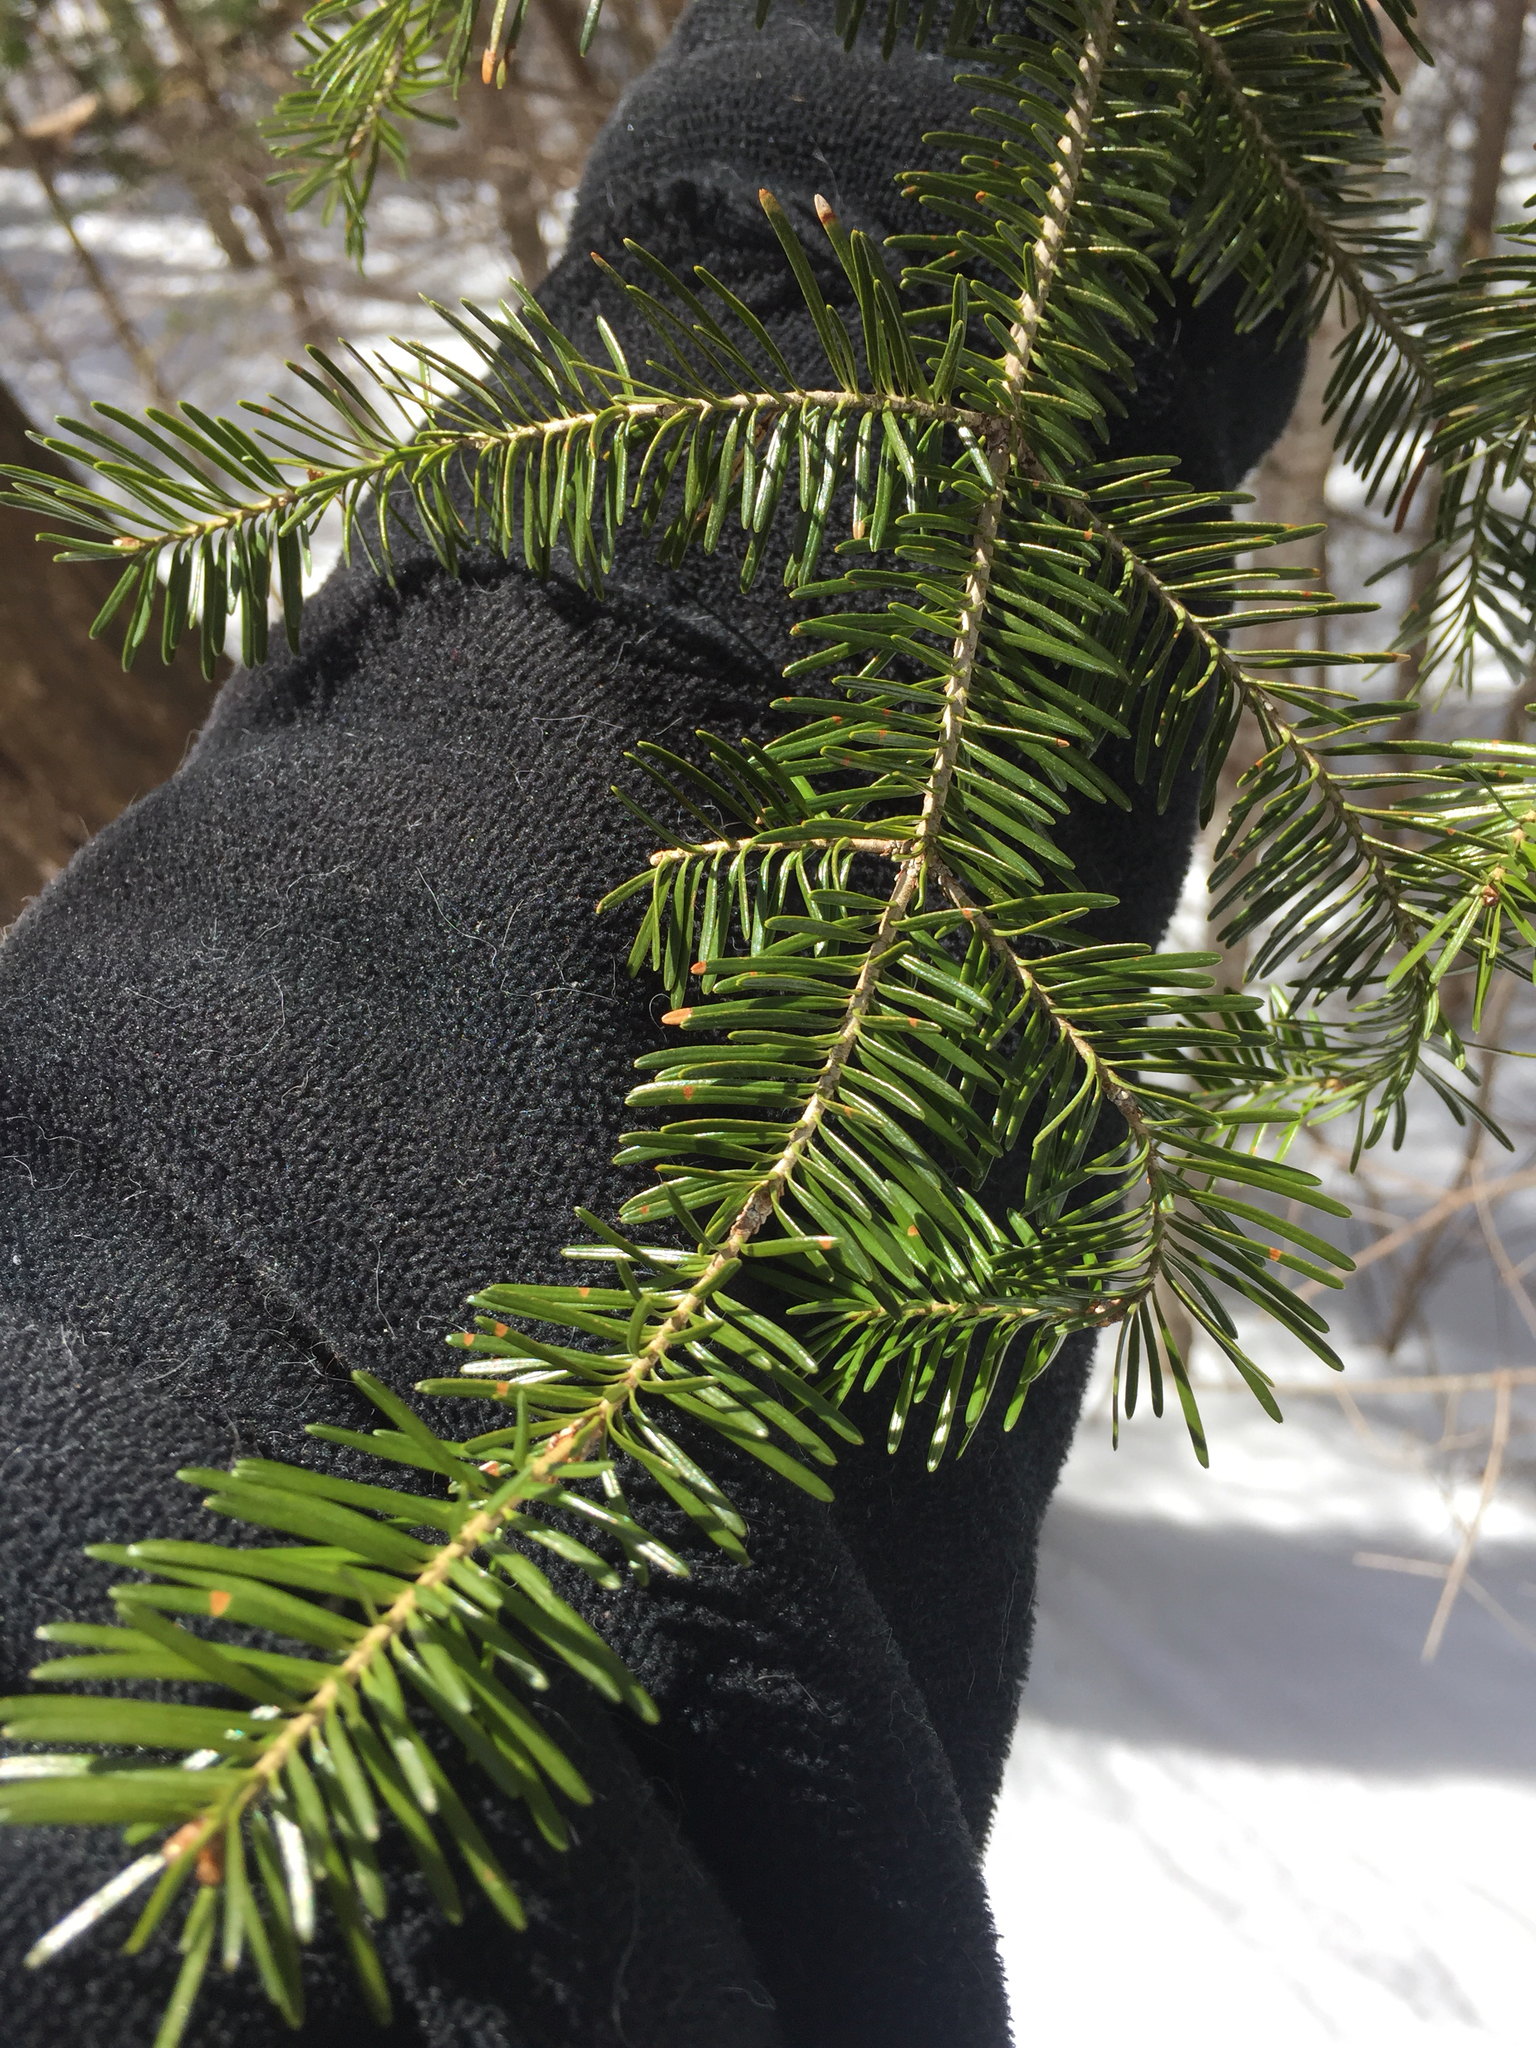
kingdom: Plantae
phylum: Tracheophyta
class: Pinopsida
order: Pinales
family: Pinaceae
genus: Abies
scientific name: Abies balsamea
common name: Balsam fir
